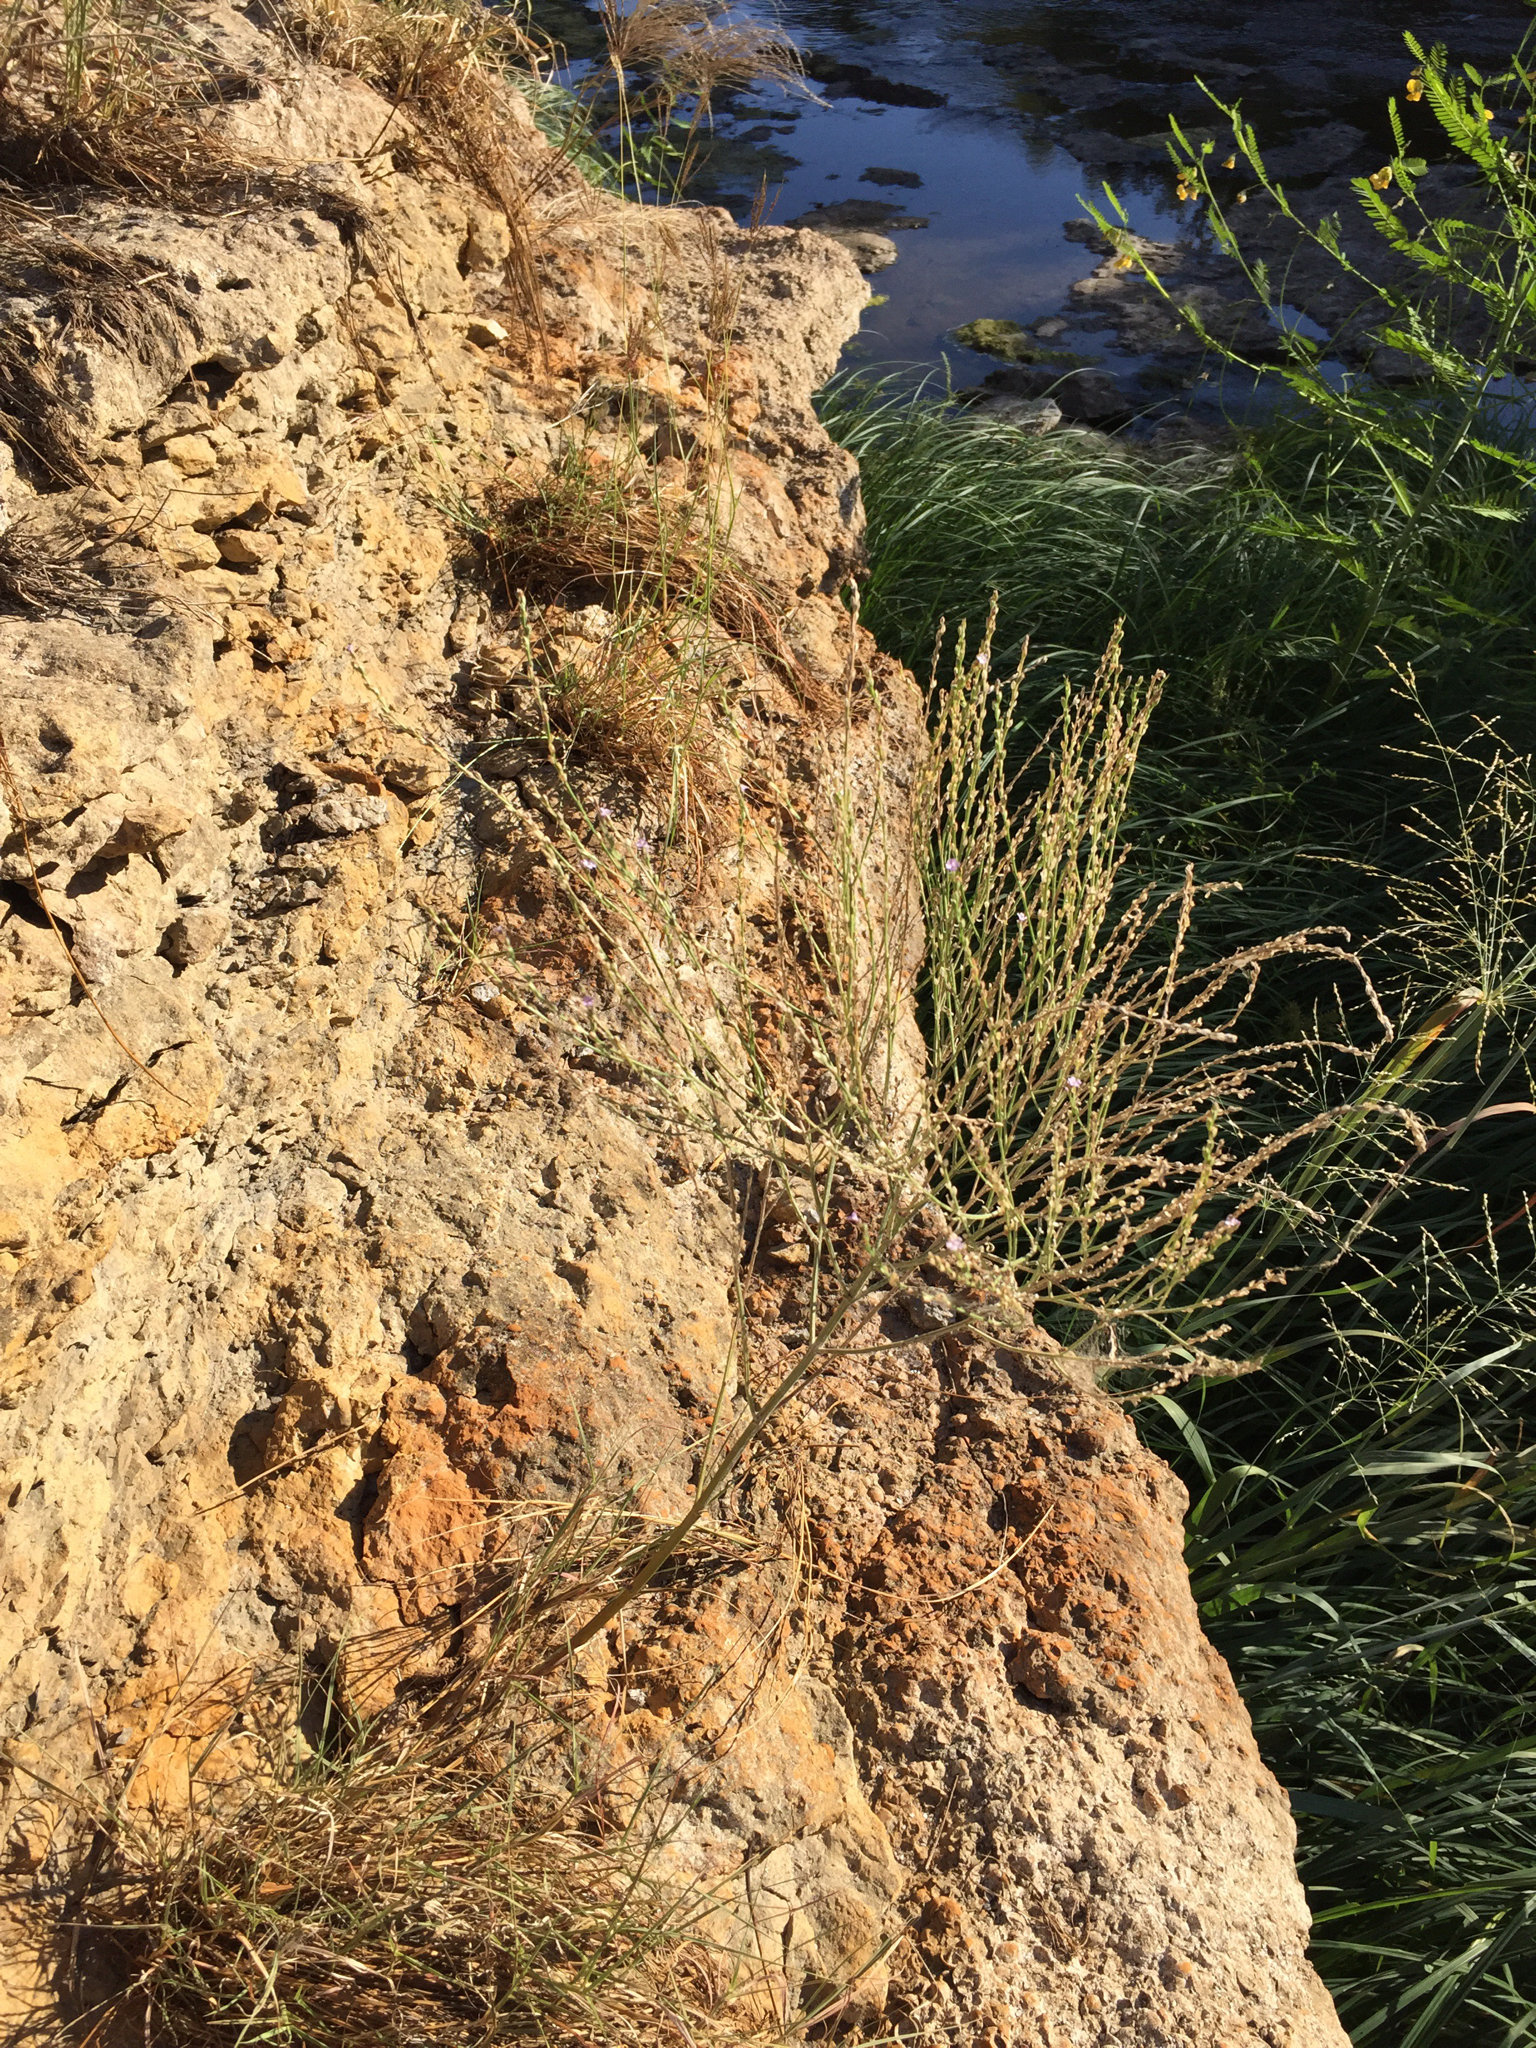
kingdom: Plantae
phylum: Tracheophyta
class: Magnoliopsida
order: Lamiales
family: Verbenaceae
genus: Verbena
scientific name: Verbena halei
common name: Texas vervain
